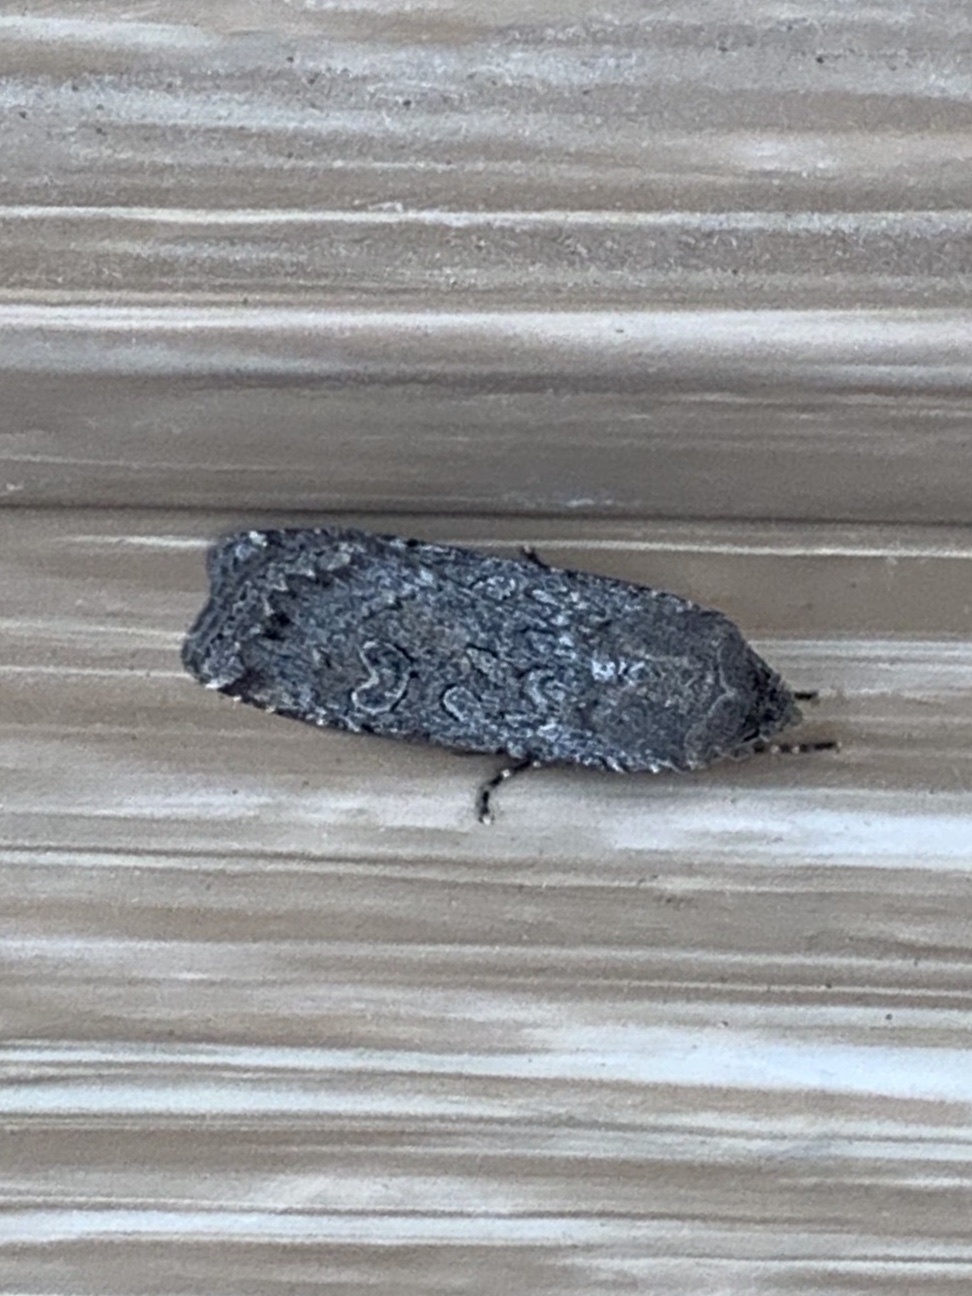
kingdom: Animalia
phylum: Arthropoda
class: Insecta
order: Lepidoptera
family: Noctuidae
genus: Euxoa
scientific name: Euxoa auxiliaris
